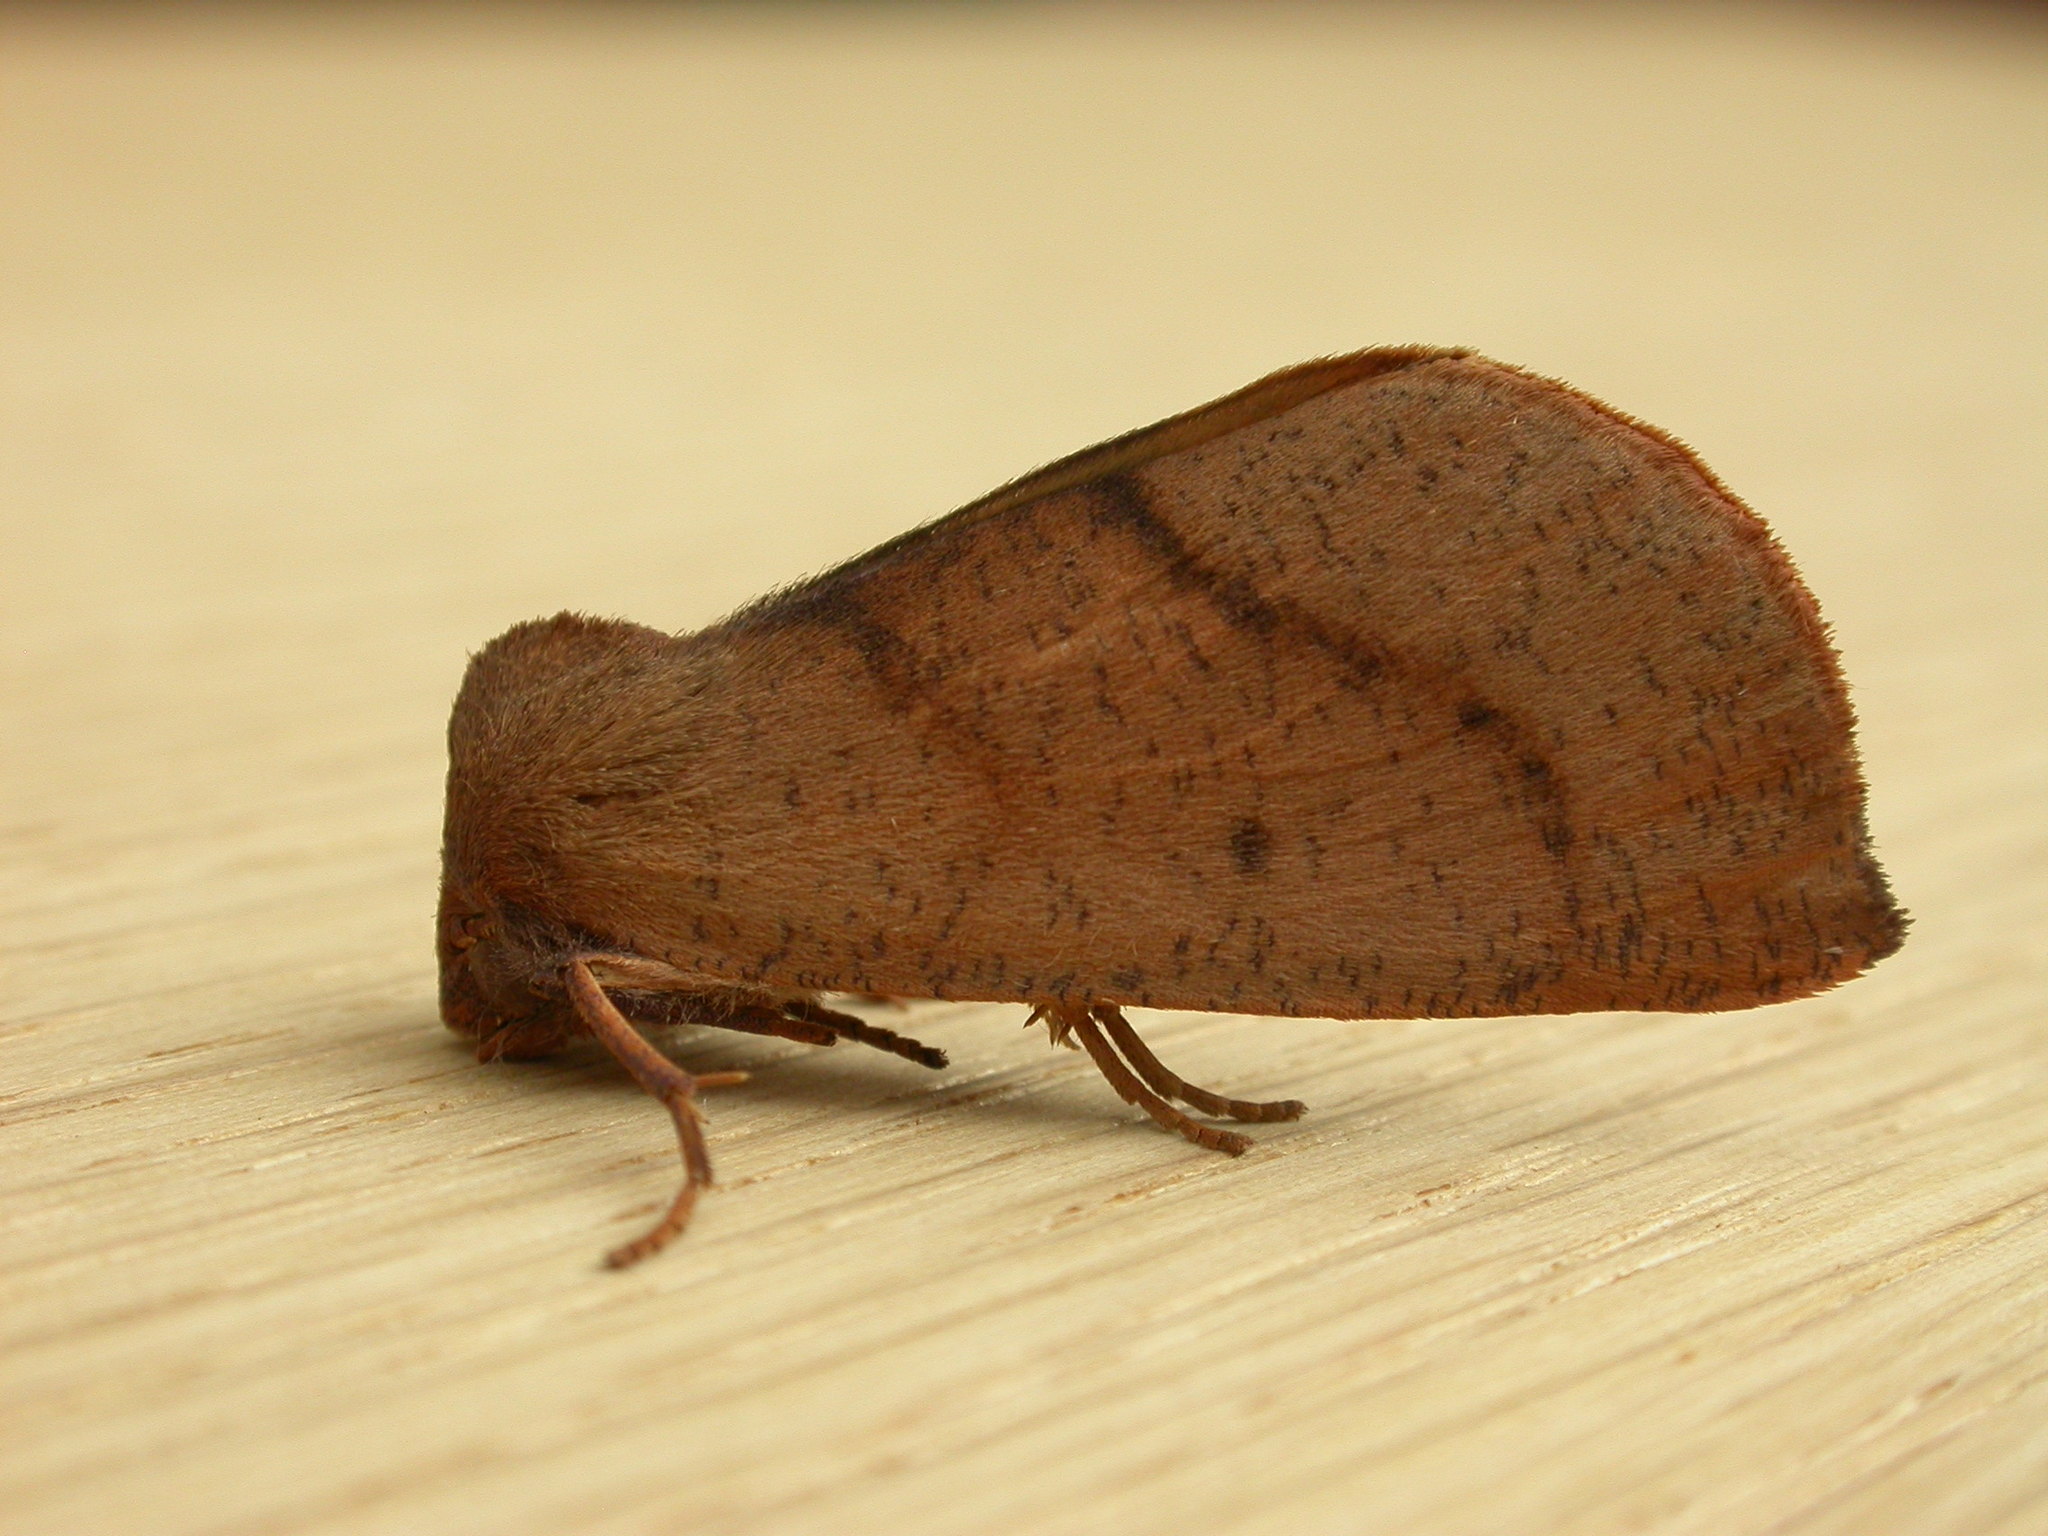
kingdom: Animalia
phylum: Arthropoda
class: Insecta
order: Lepidoptera
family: Geometridae
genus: Fisera
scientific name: Fisera perplexata
